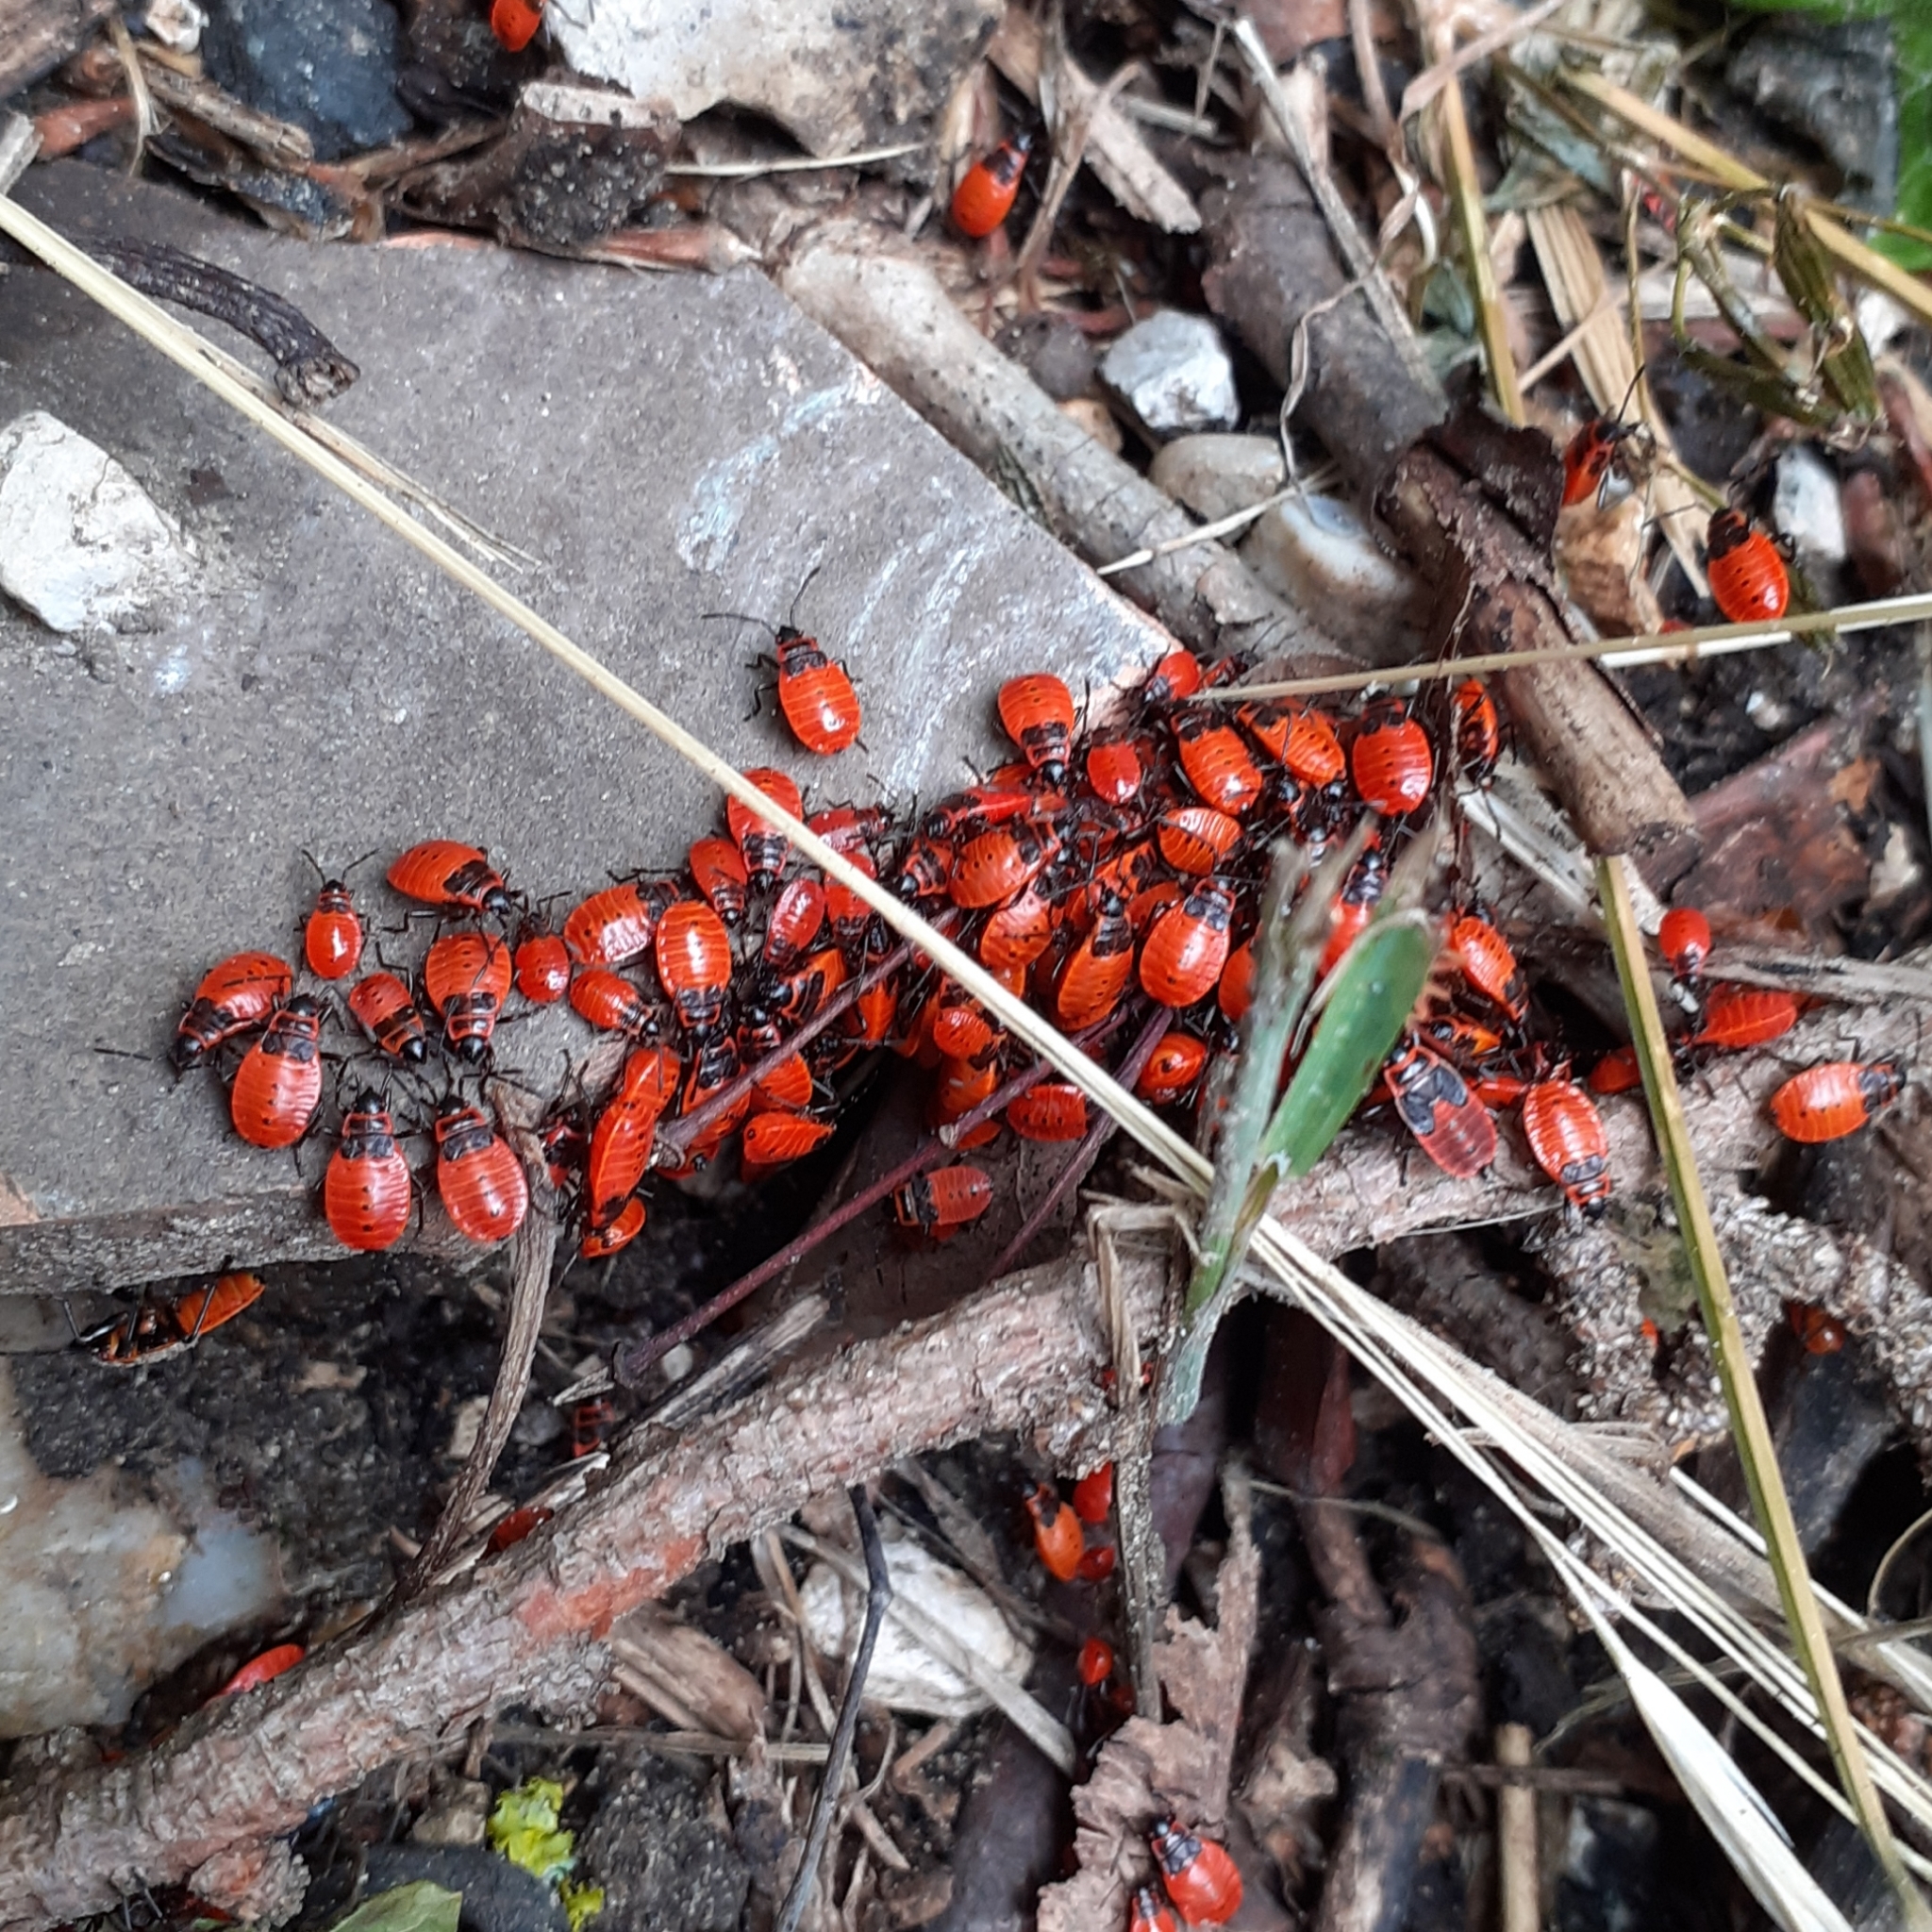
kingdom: Animalia
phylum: Arthropoda
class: Insecta
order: Hemiptera
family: Pyrrhocoridae
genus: Pyrrhocoris
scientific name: Pyrrhocoris apterus
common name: Firebug
